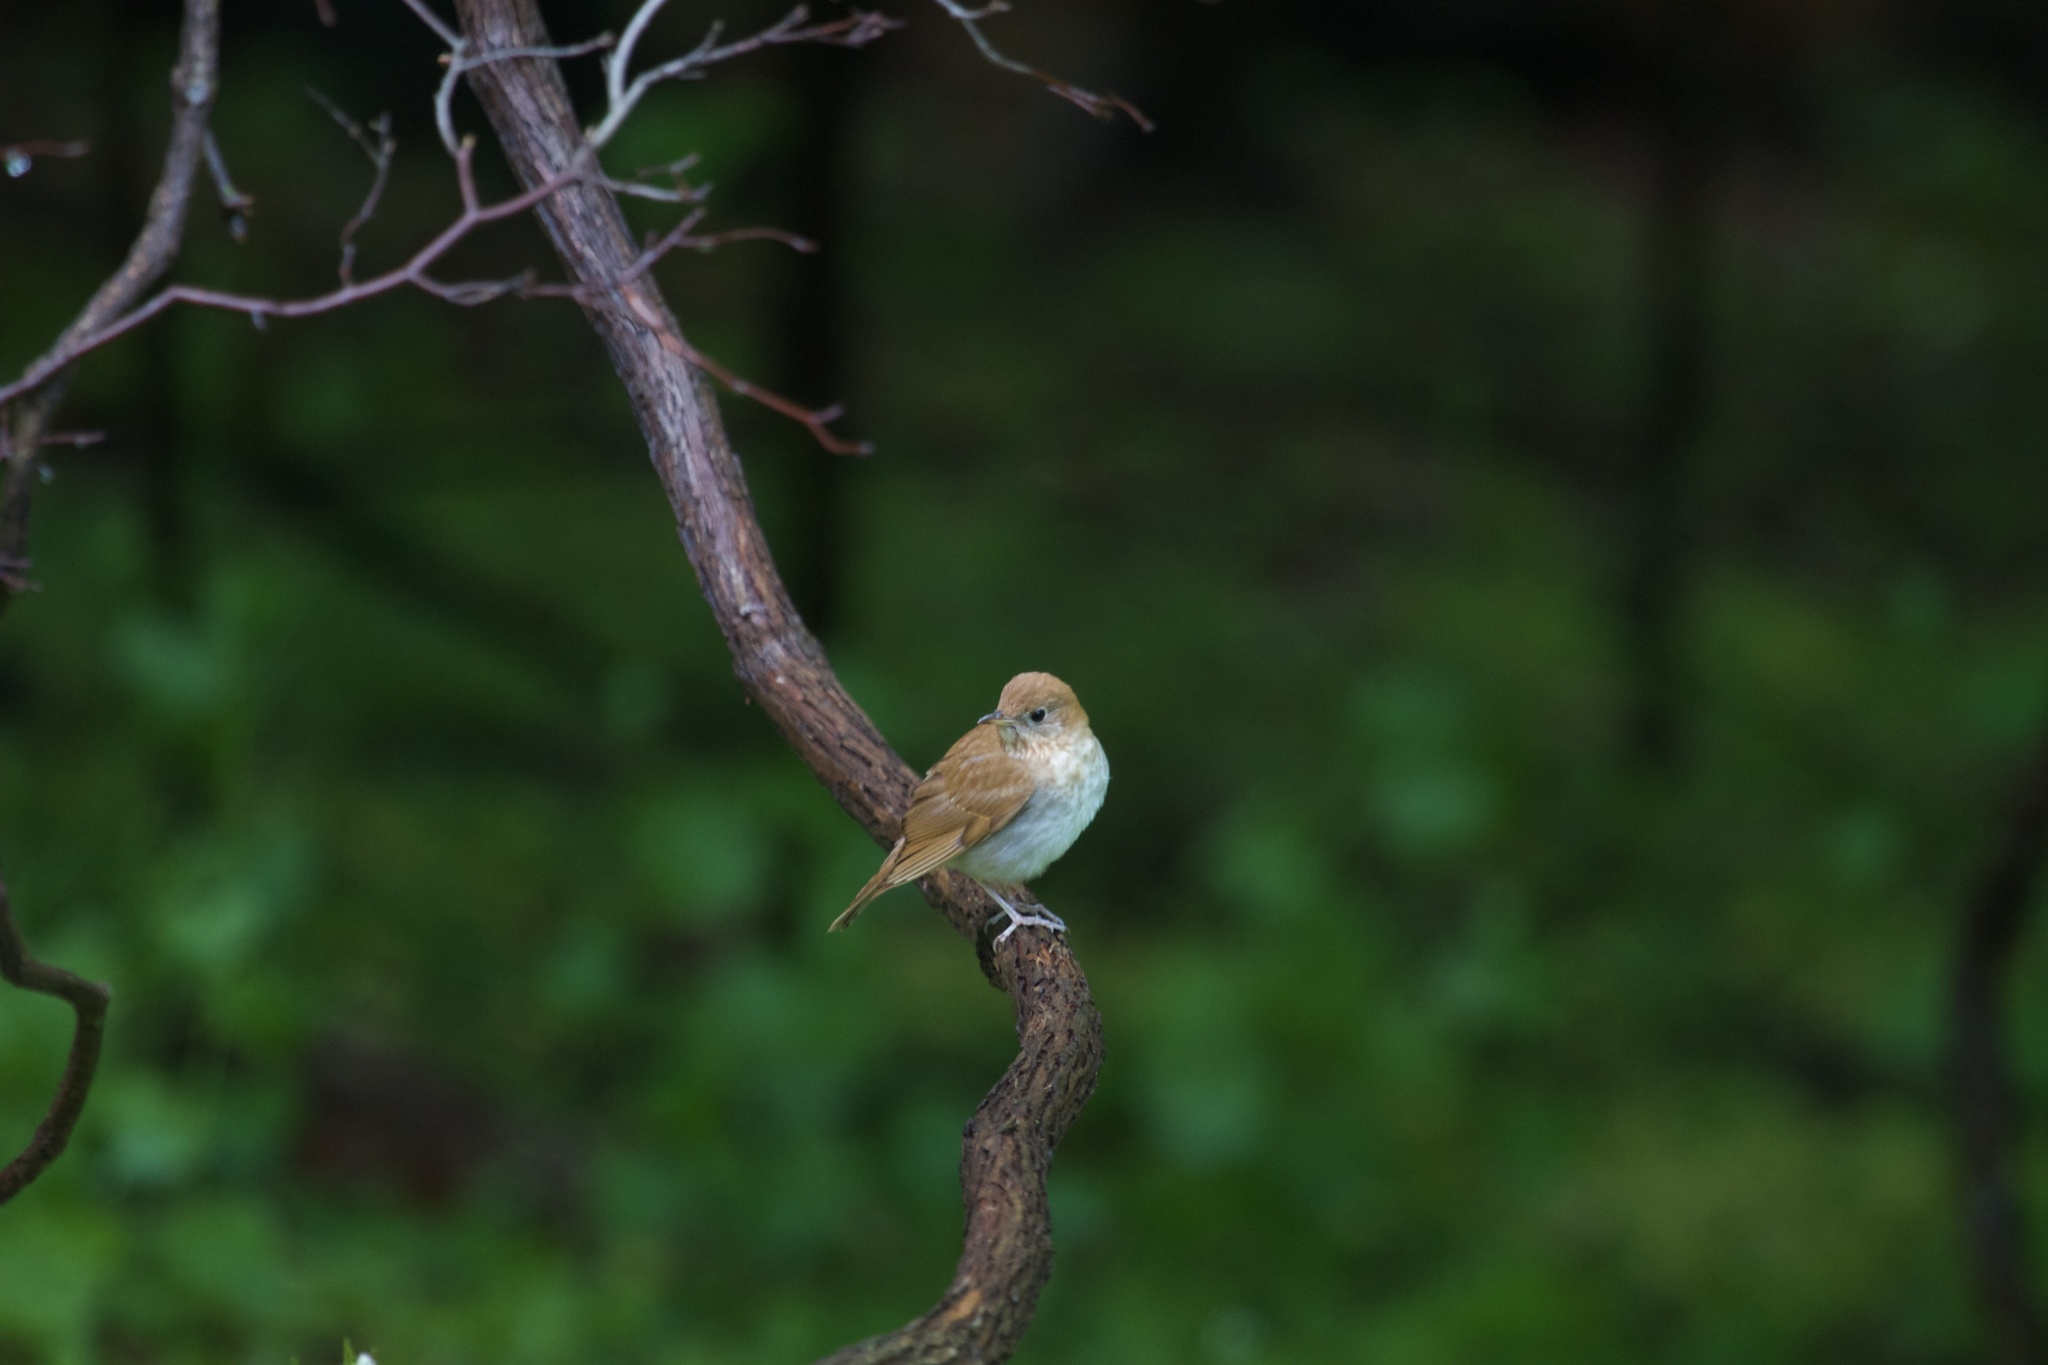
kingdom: Animalia
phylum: Chordata
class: Aves
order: Passeriformes
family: Turdidae
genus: Catharus
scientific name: Catharus fuscescens
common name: Veery
